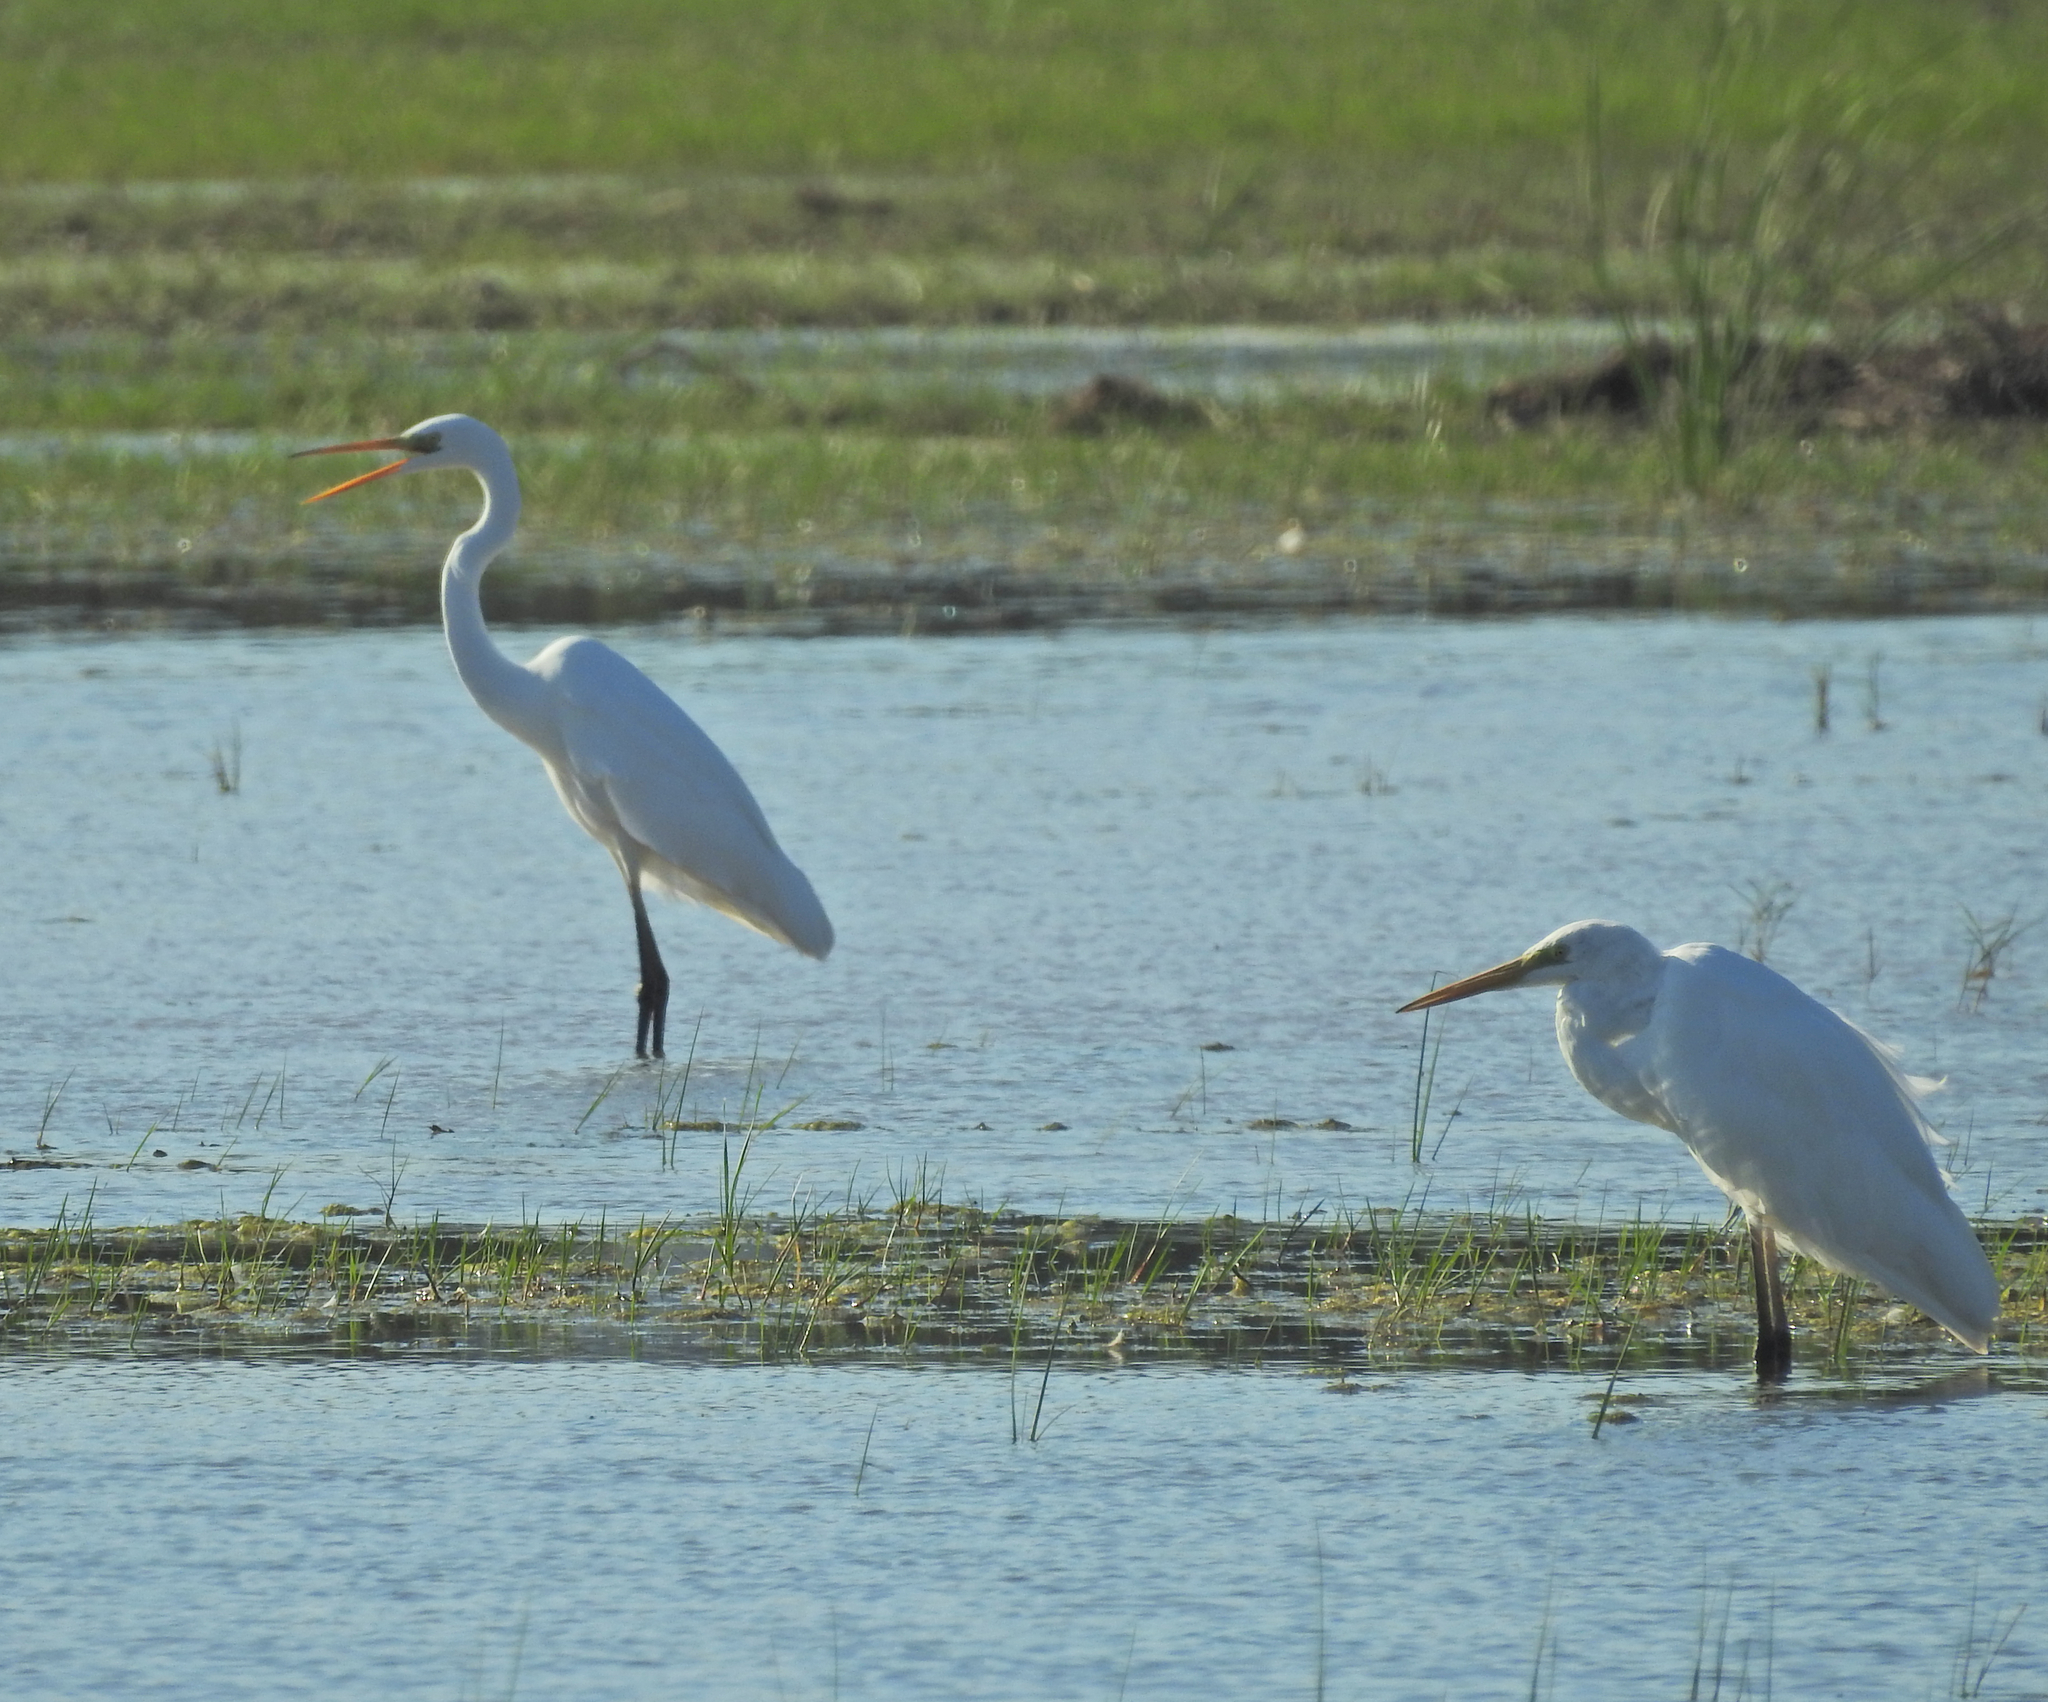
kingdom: Animalia
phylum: Chordata
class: Aves
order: Pelecaniformes
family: Ardeidae
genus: Ardea
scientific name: Ardea alba
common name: Great egret
